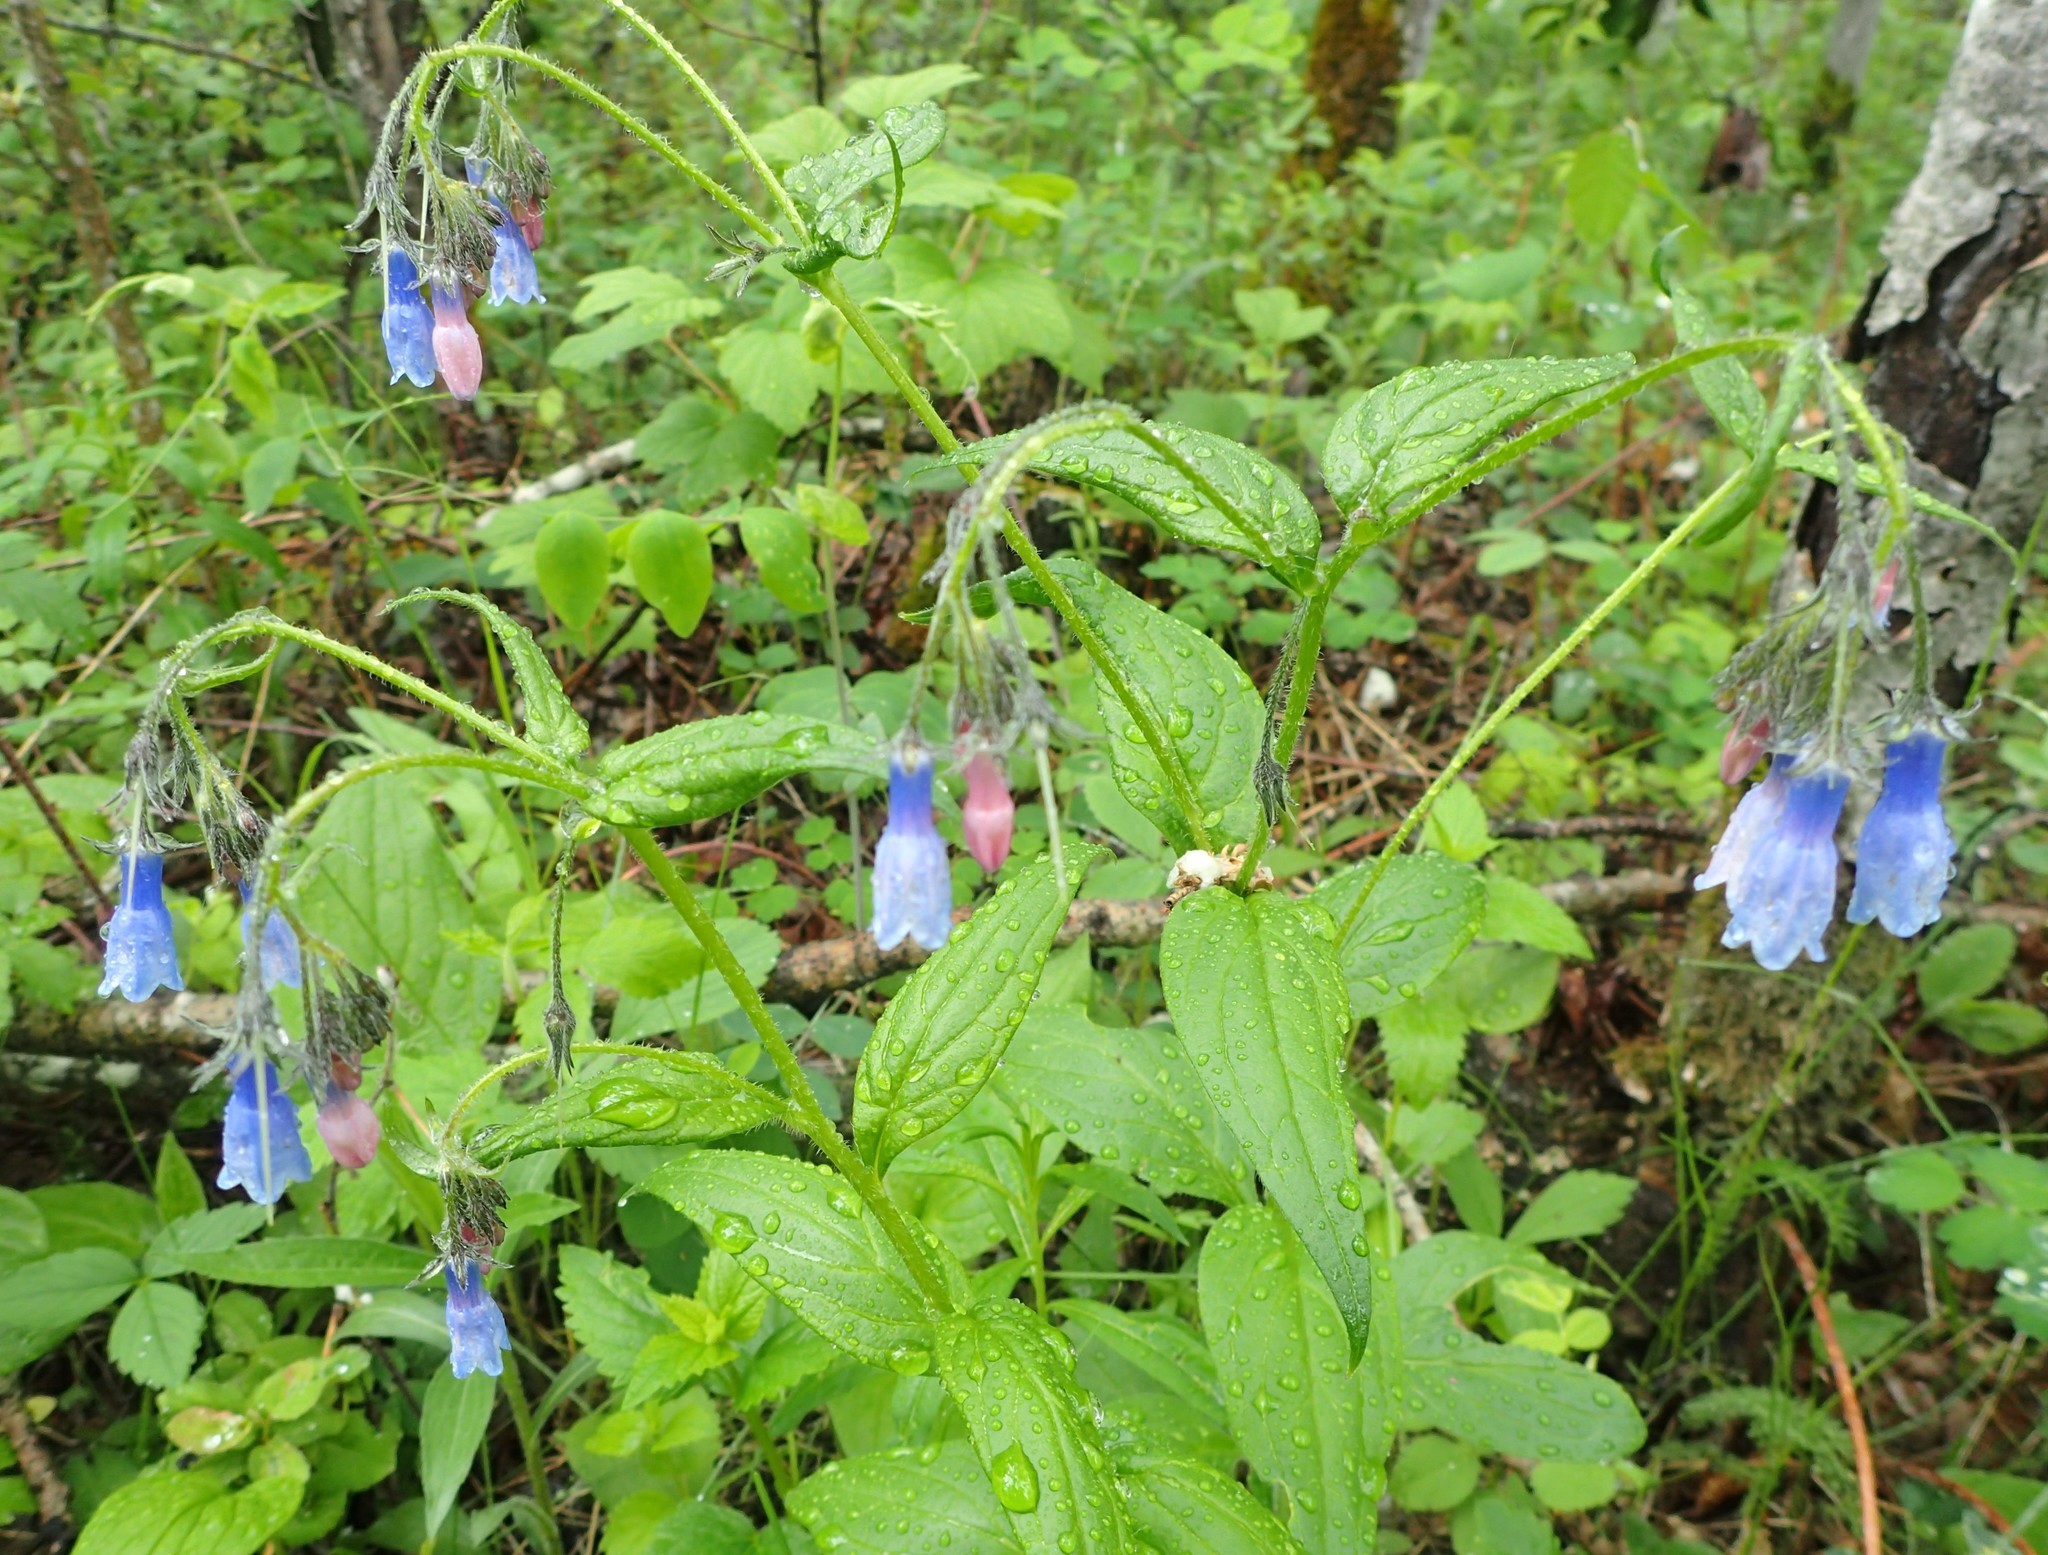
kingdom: Plantae
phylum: Tracheophyta
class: Magnoliopsida
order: Boraginales
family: Boraginaceae
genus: Mertensia
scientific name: Mertensia paniculata
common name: Panicled bluebells
